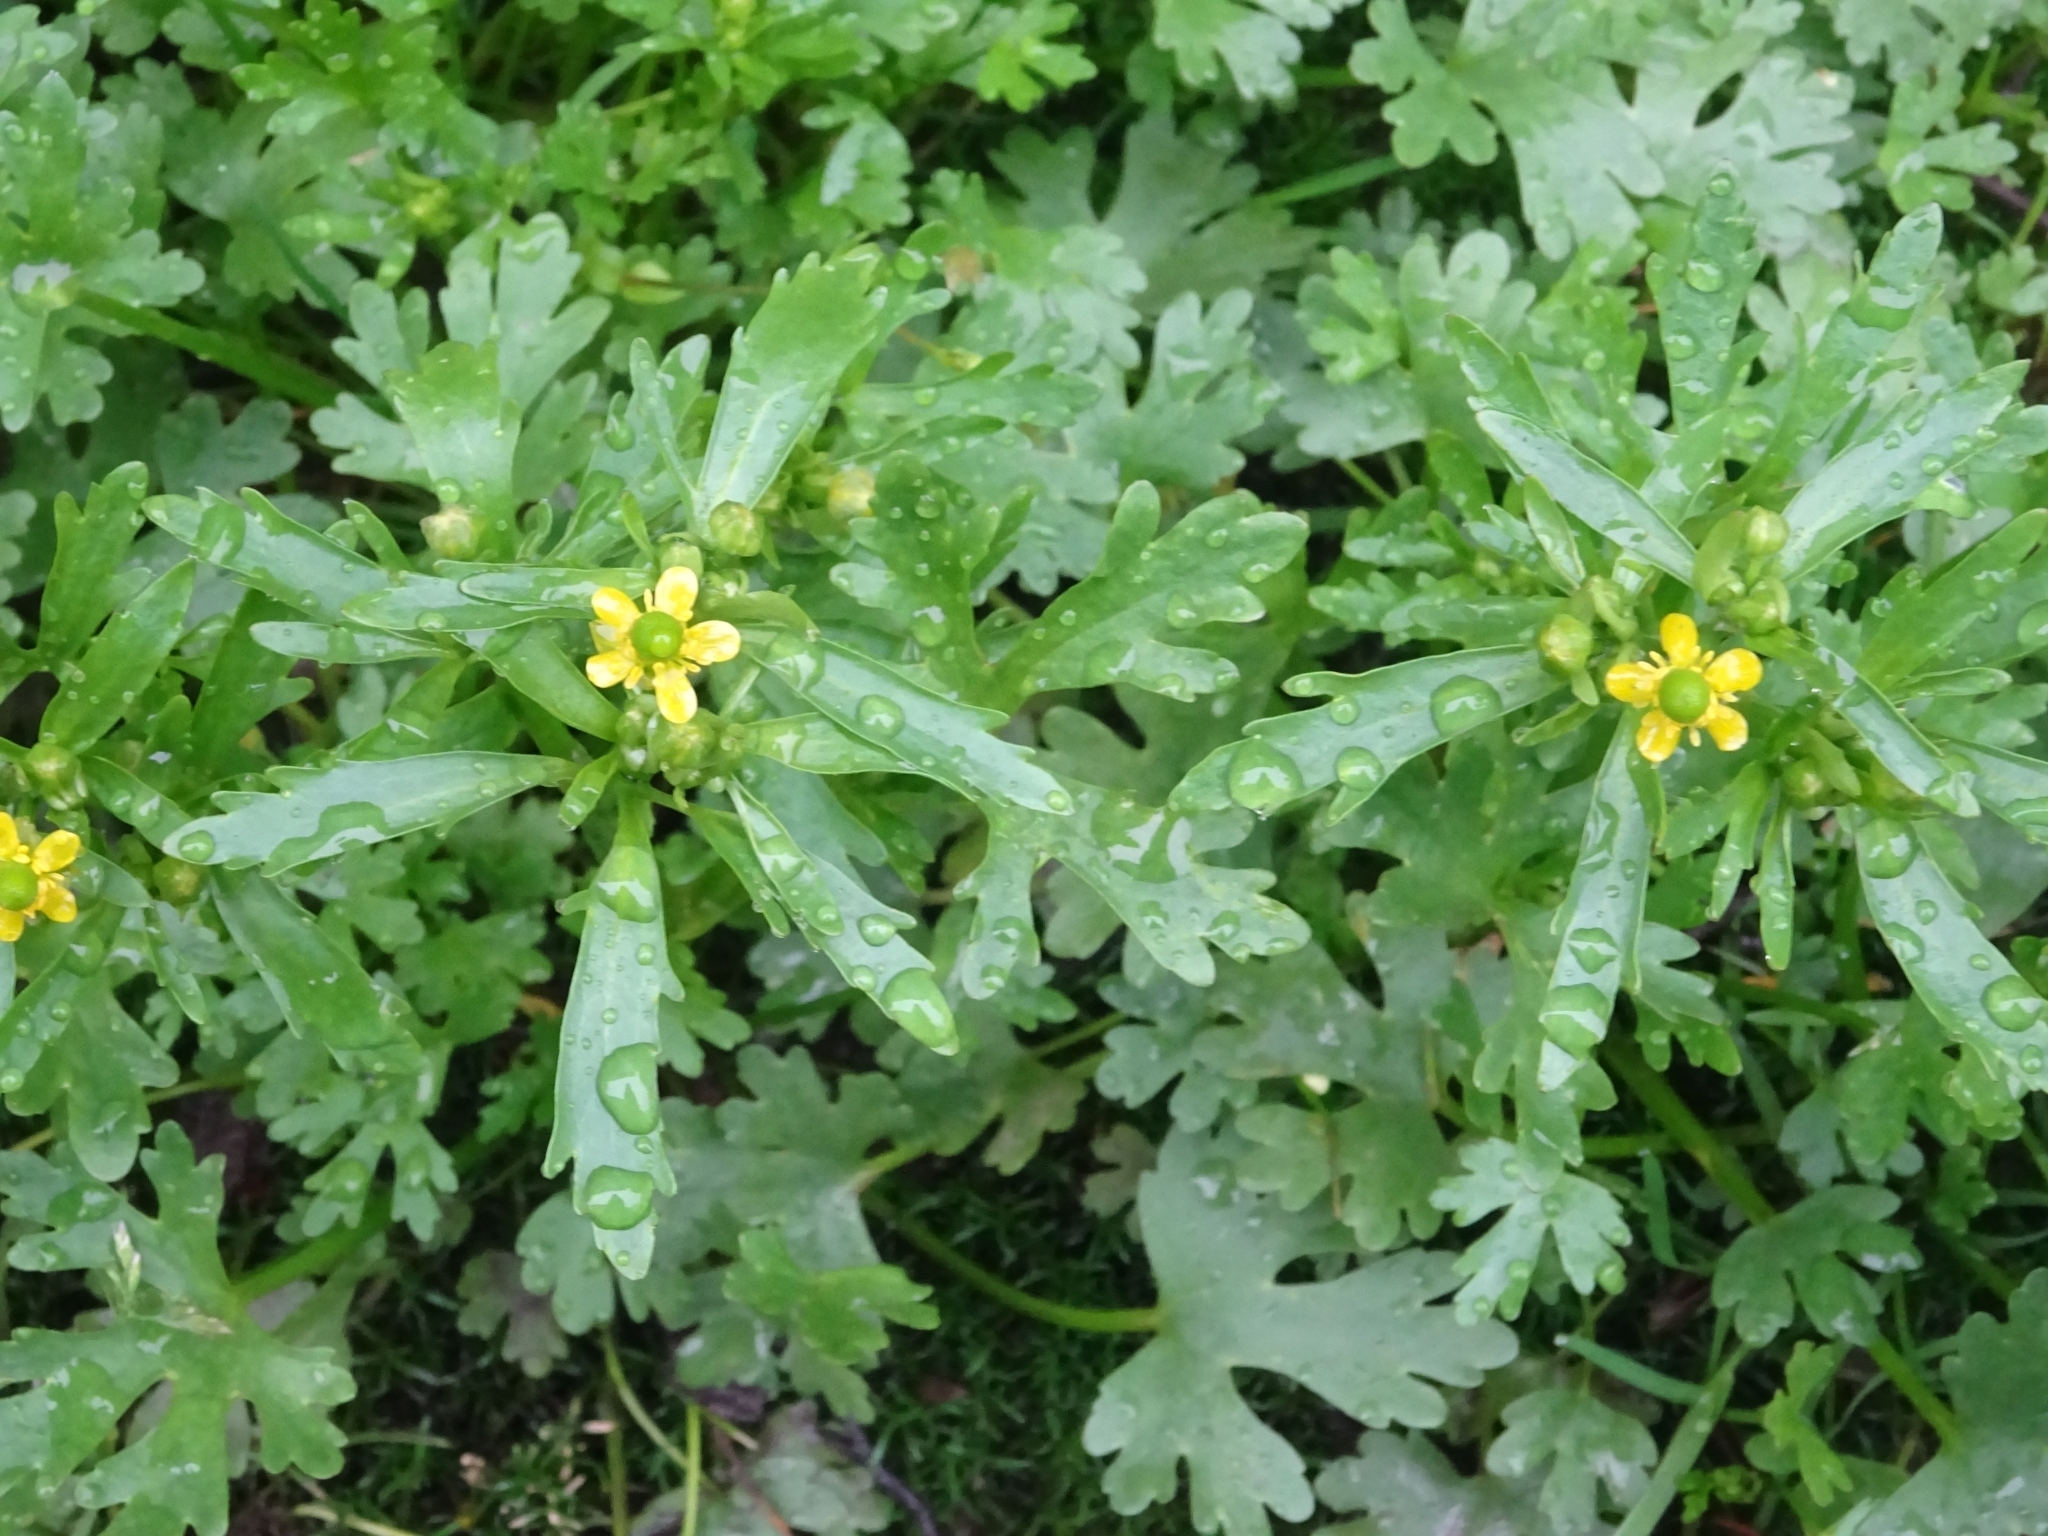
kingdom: Plantae
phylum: Tracheophyta
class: Magnoliopsida
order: Ranunculales
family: Ranunculaceae
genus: Ranunculus
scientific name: Ranunculus sceleratus
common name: Celery-leaved buttercup
